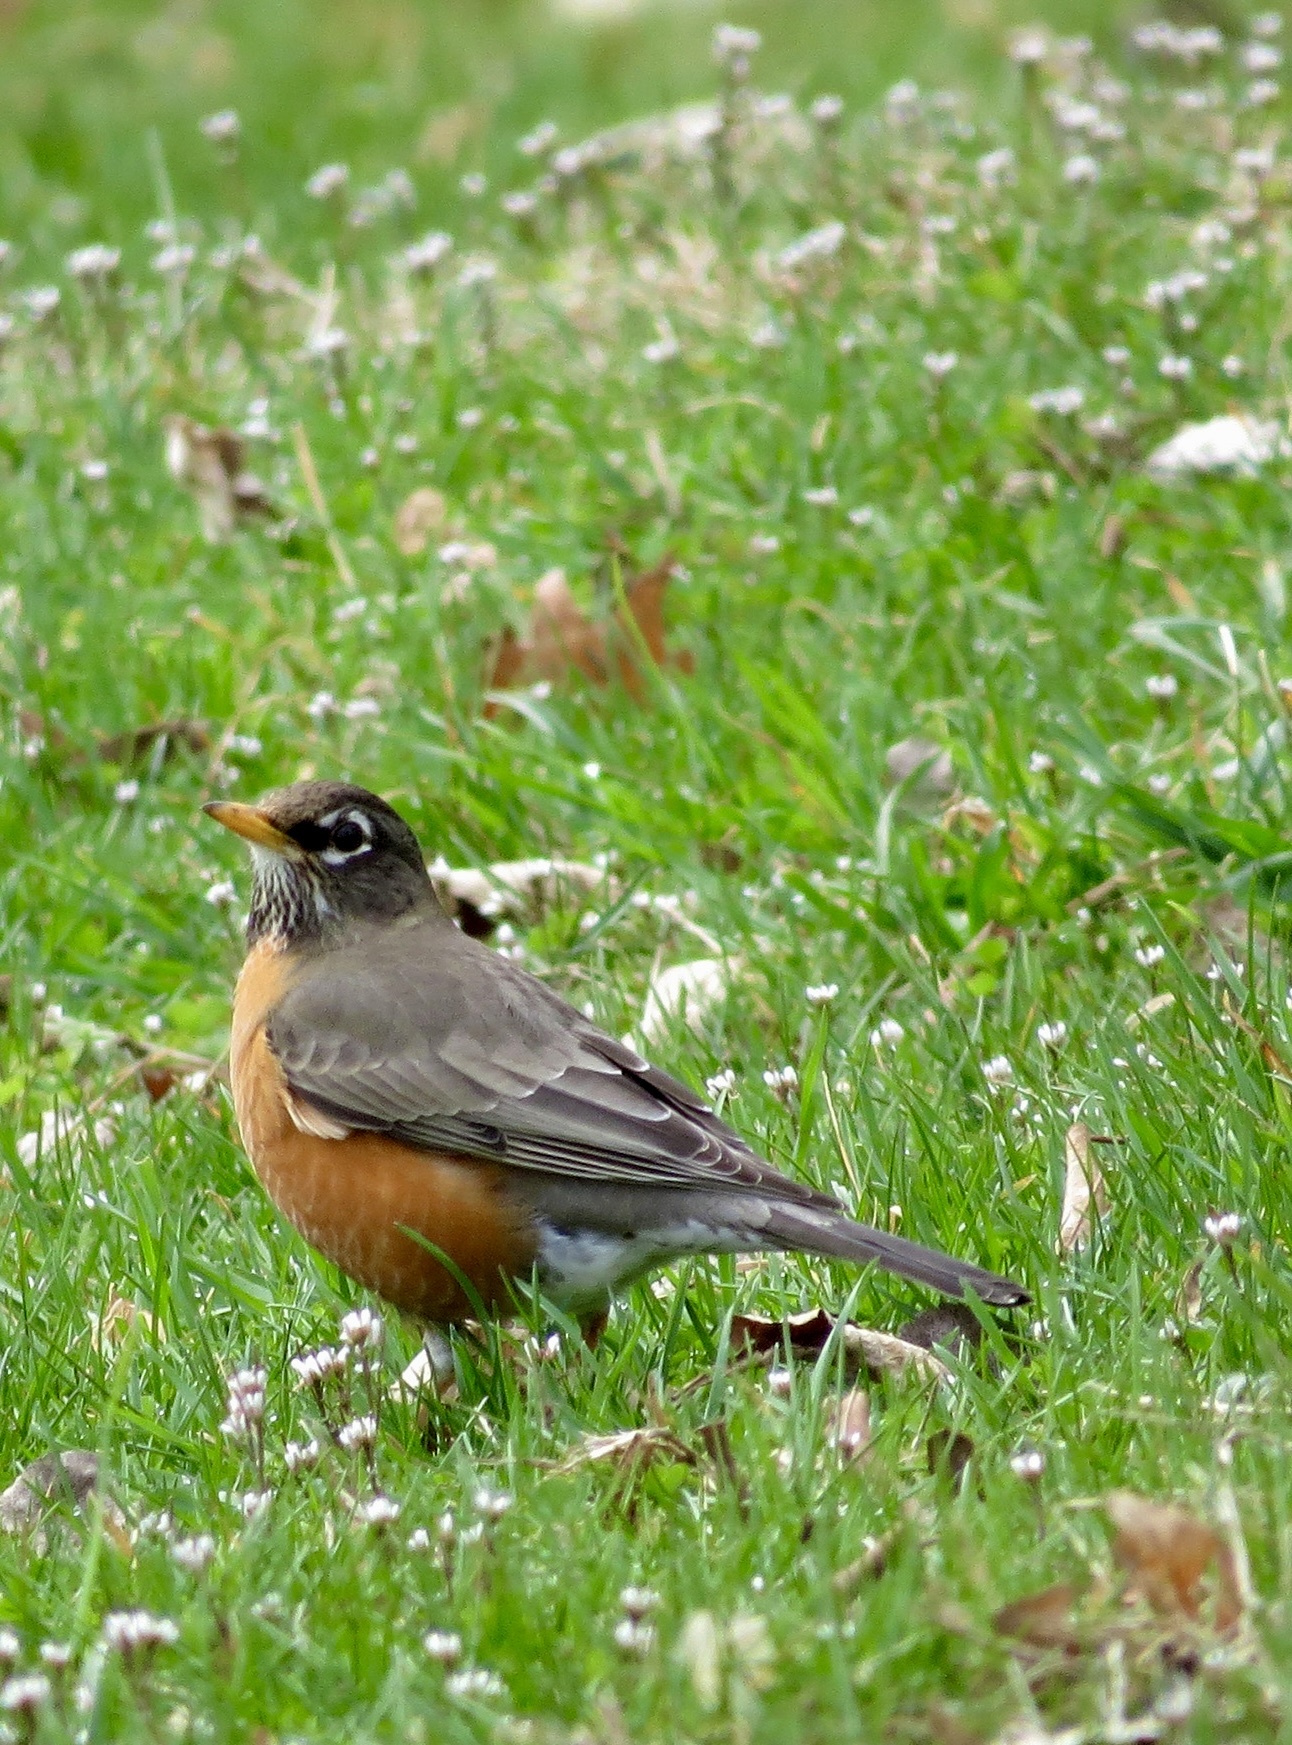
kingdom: Animalia
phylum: Chordata
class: Aves
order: Passeriformes
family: Turdidae
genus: Turdus
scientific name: Turdus migratorius
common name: American robin
